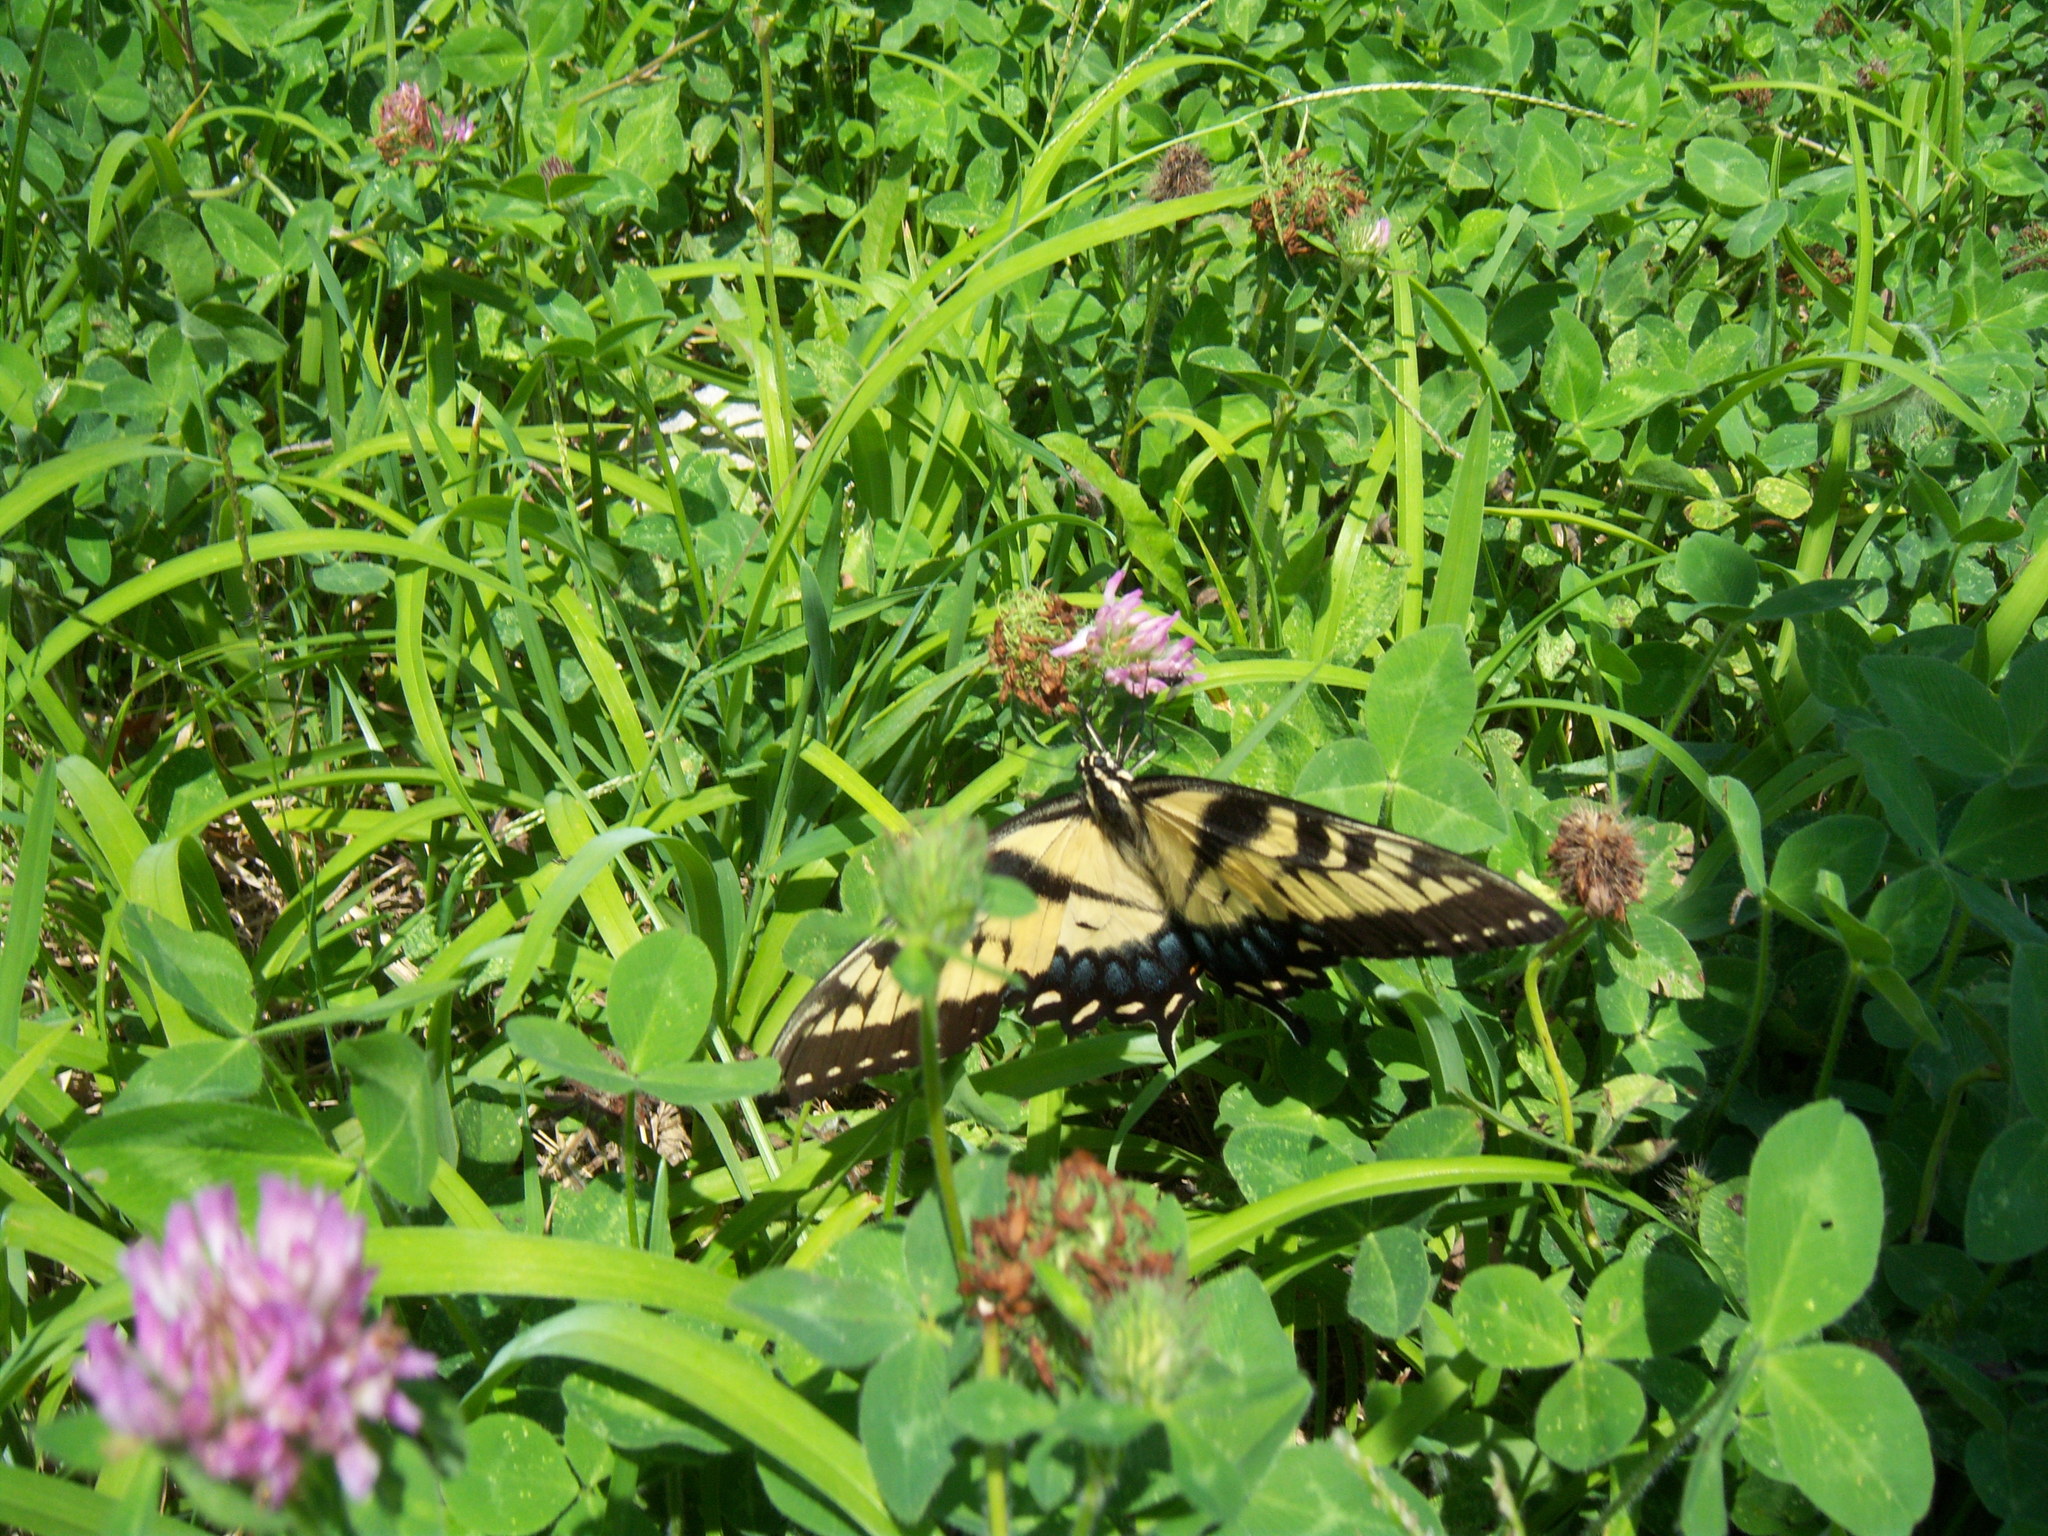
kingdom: Animalia
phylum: Arthropoda
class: Insecta
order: Lepidoptera
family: Papilionidae
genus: Papilio
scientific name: Papilio glaucus
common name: Tiger swallowtail
